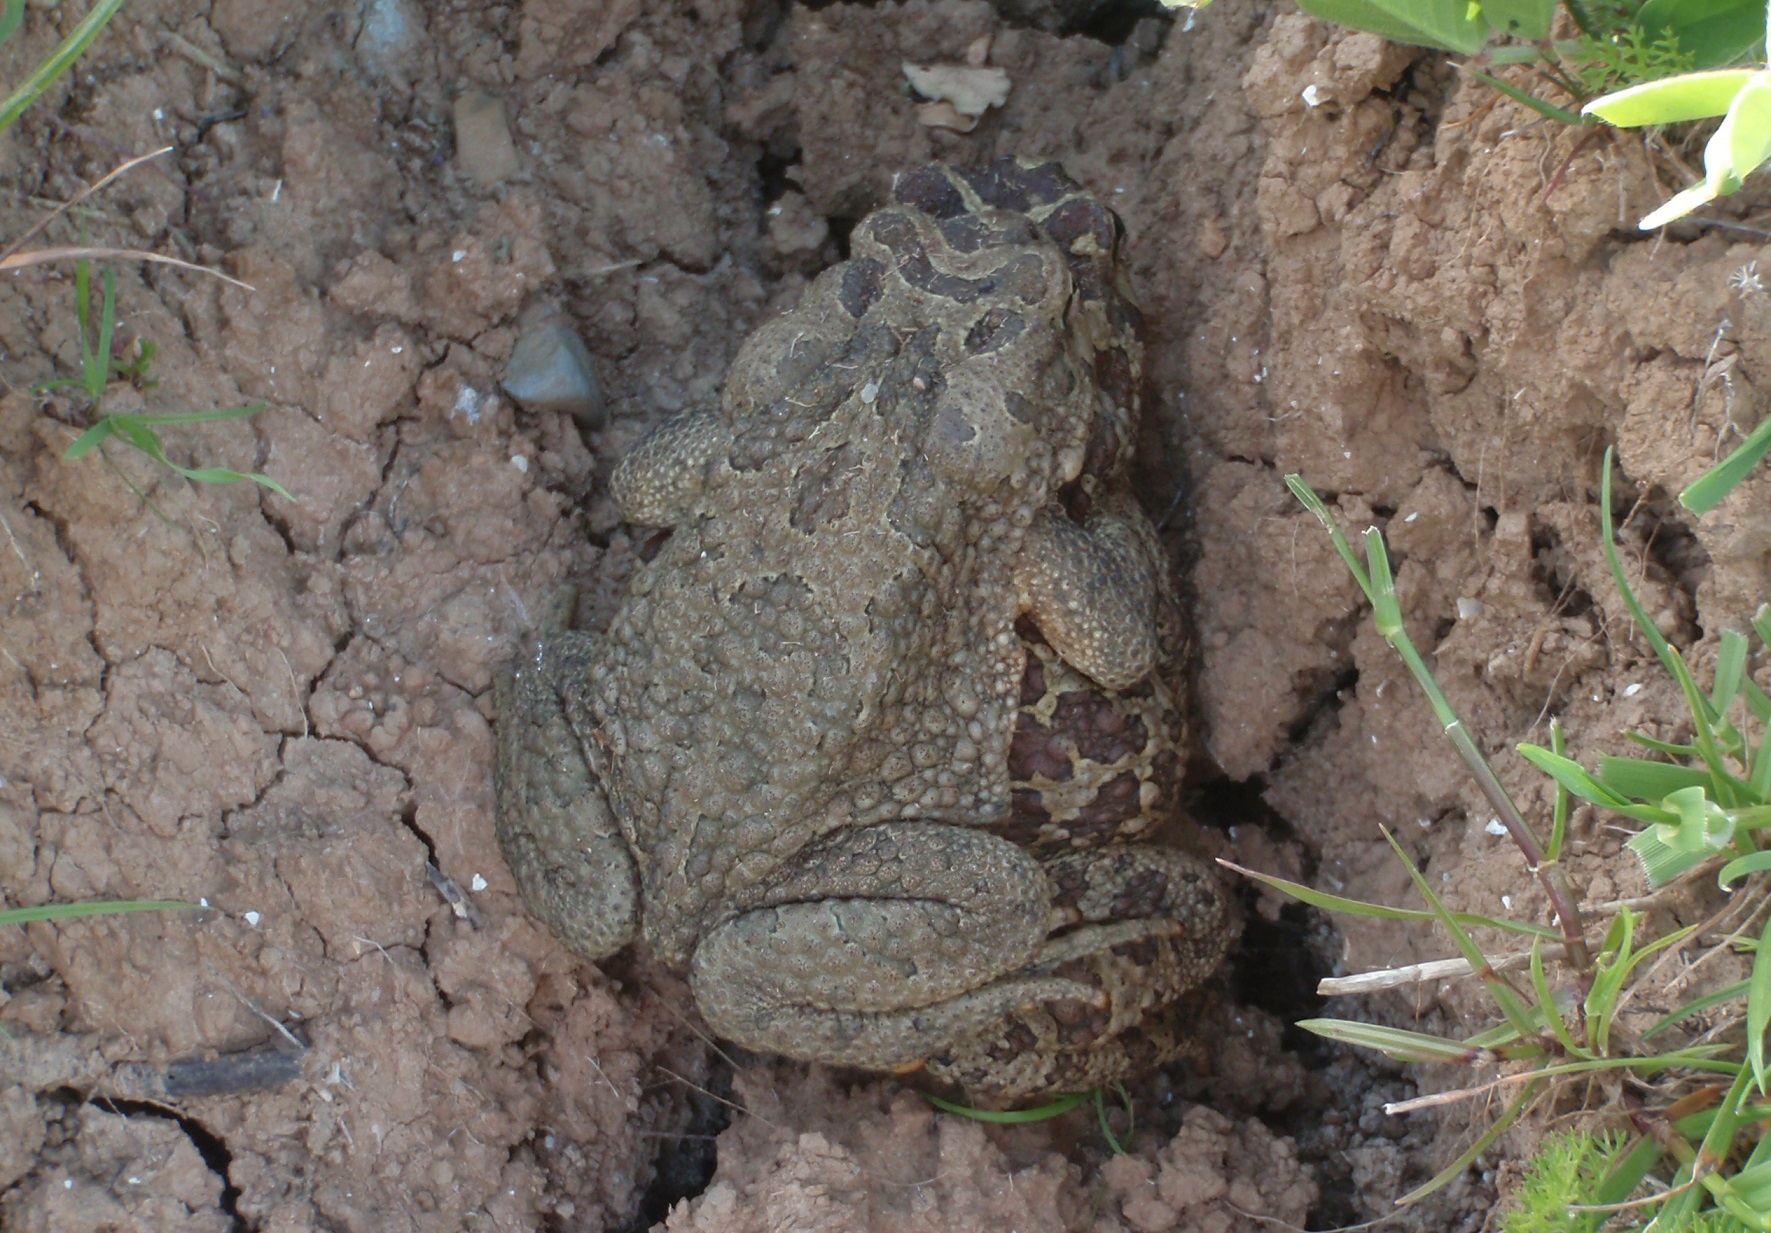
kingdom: Animalia
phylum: Chordata
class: Amphibia
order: Anura
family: Bufonidae
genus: Sclerophrys
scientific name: Sclerophrys mauritanica
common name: Berber toad
